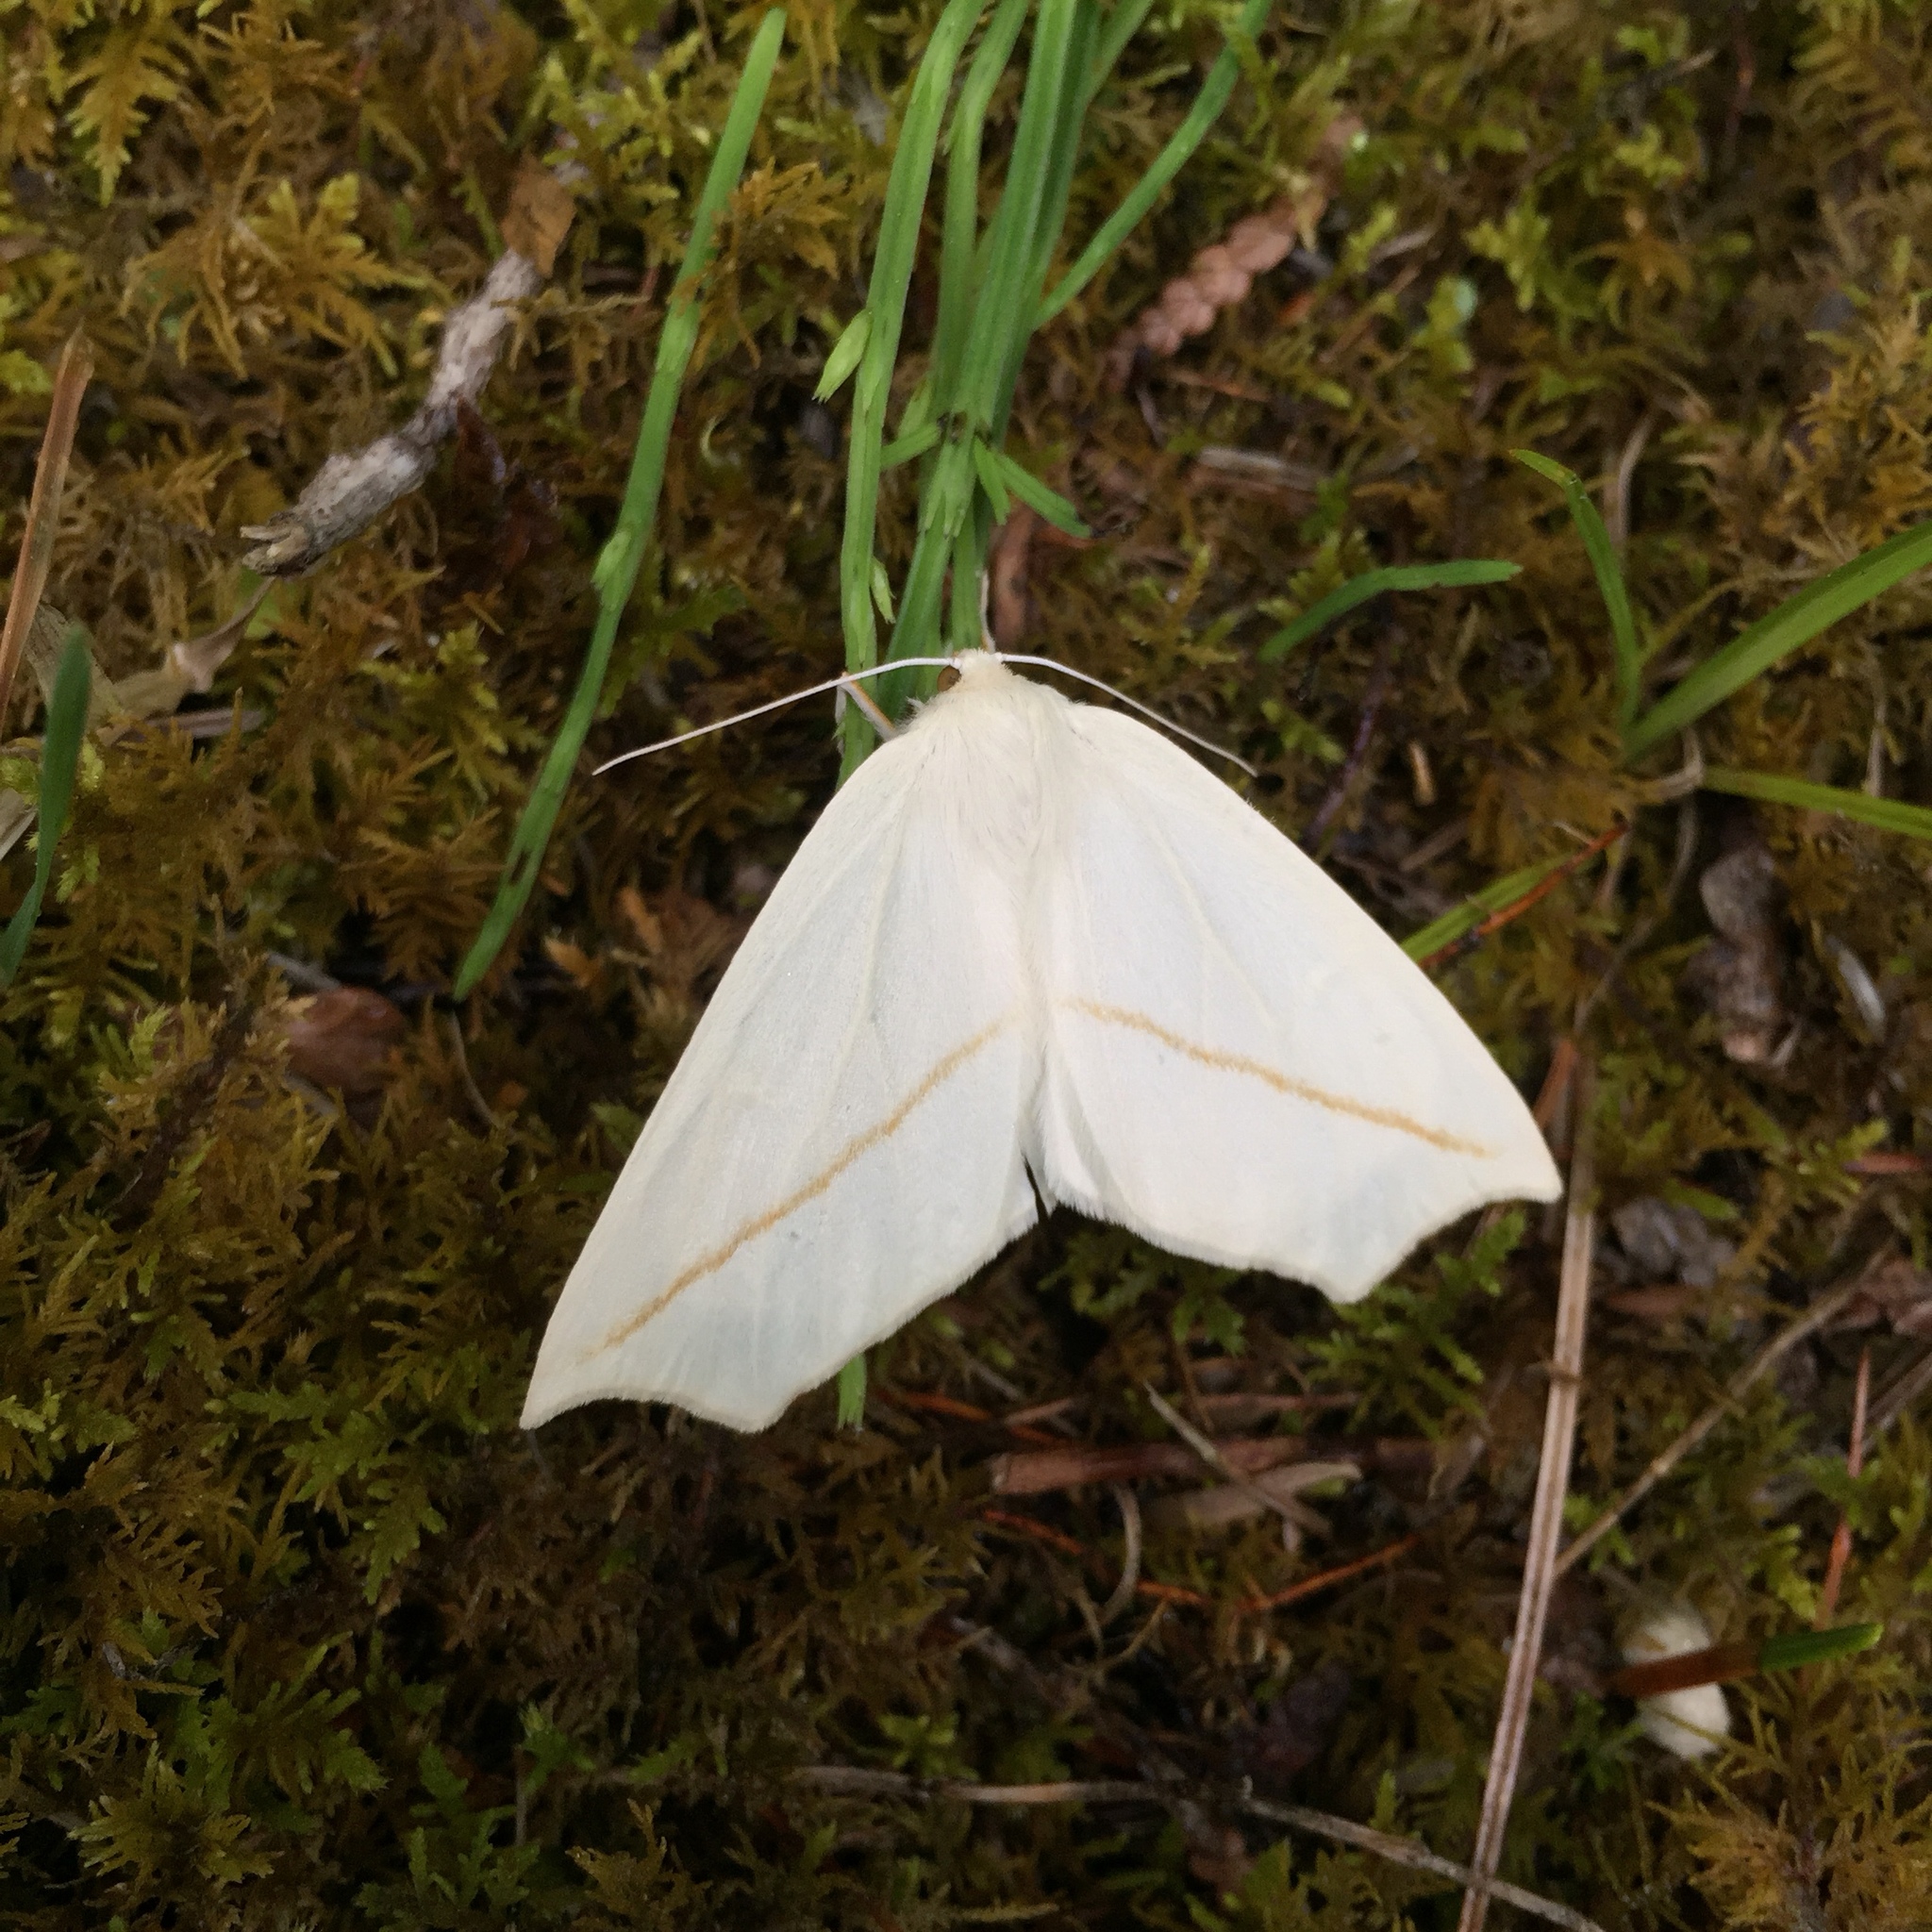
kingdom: Animalia
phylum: Arthropoda
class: Insecta
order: Lepidoptera
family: Geometridae
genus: Tetracis
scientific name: Tetracis cachexiata
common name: White slant-line
